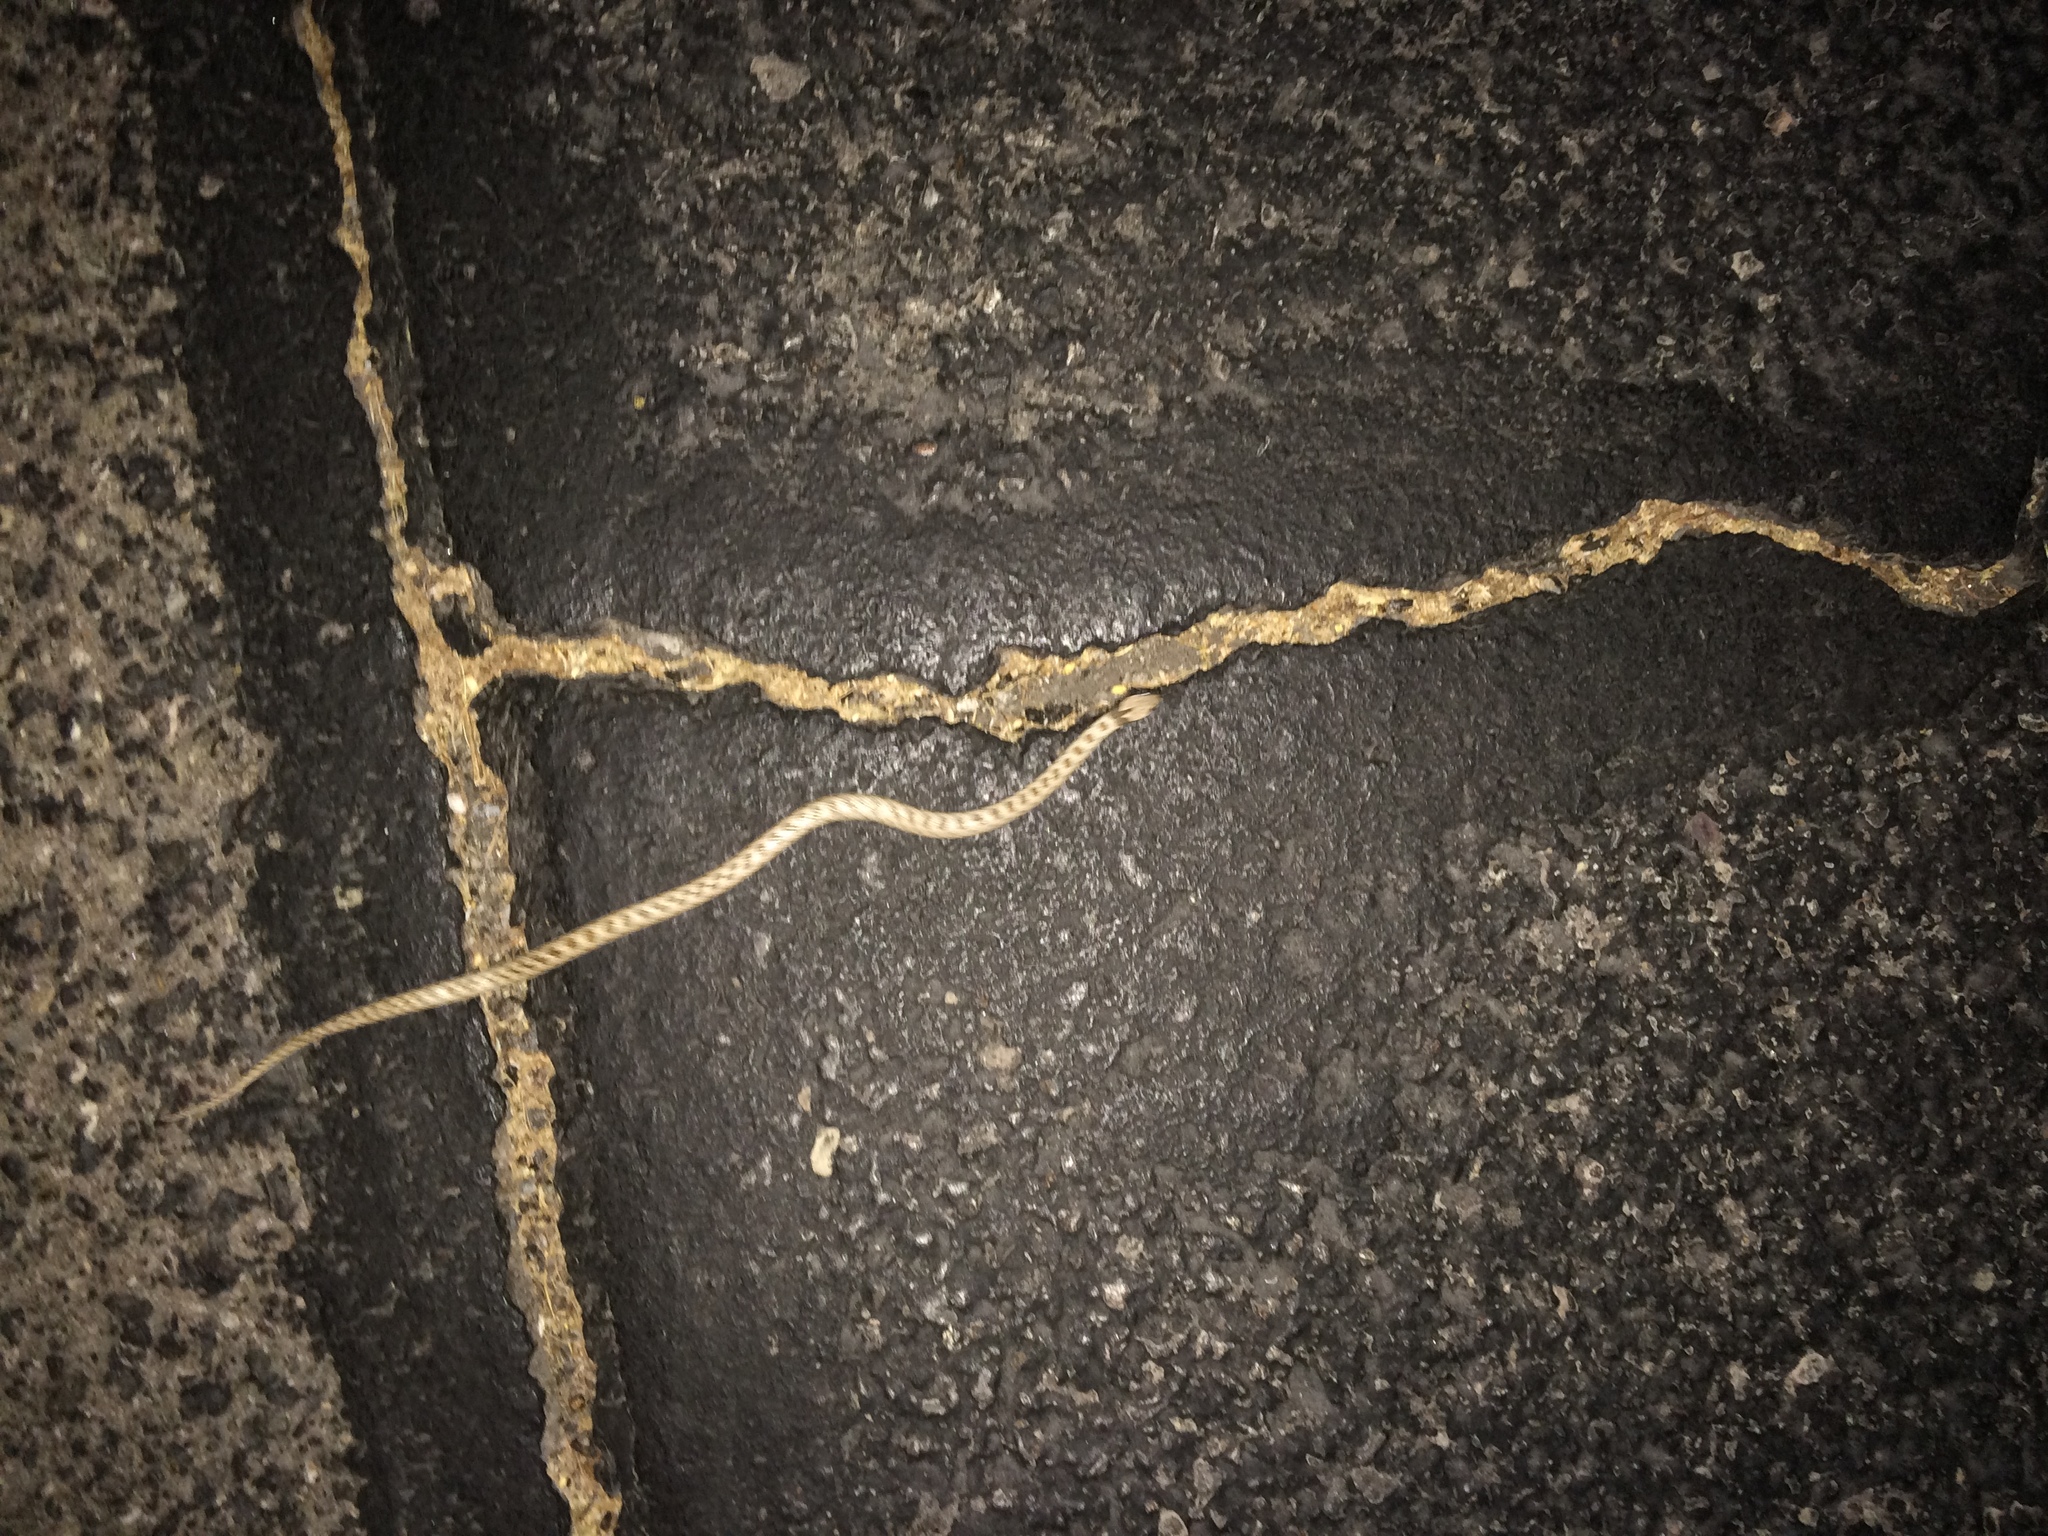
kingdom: Animalia
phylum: Chordata
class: Squamata
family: Colubridae
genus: Hypsiglena
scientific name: Hypsiglena chlorophaea
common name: Desert nightsnake
